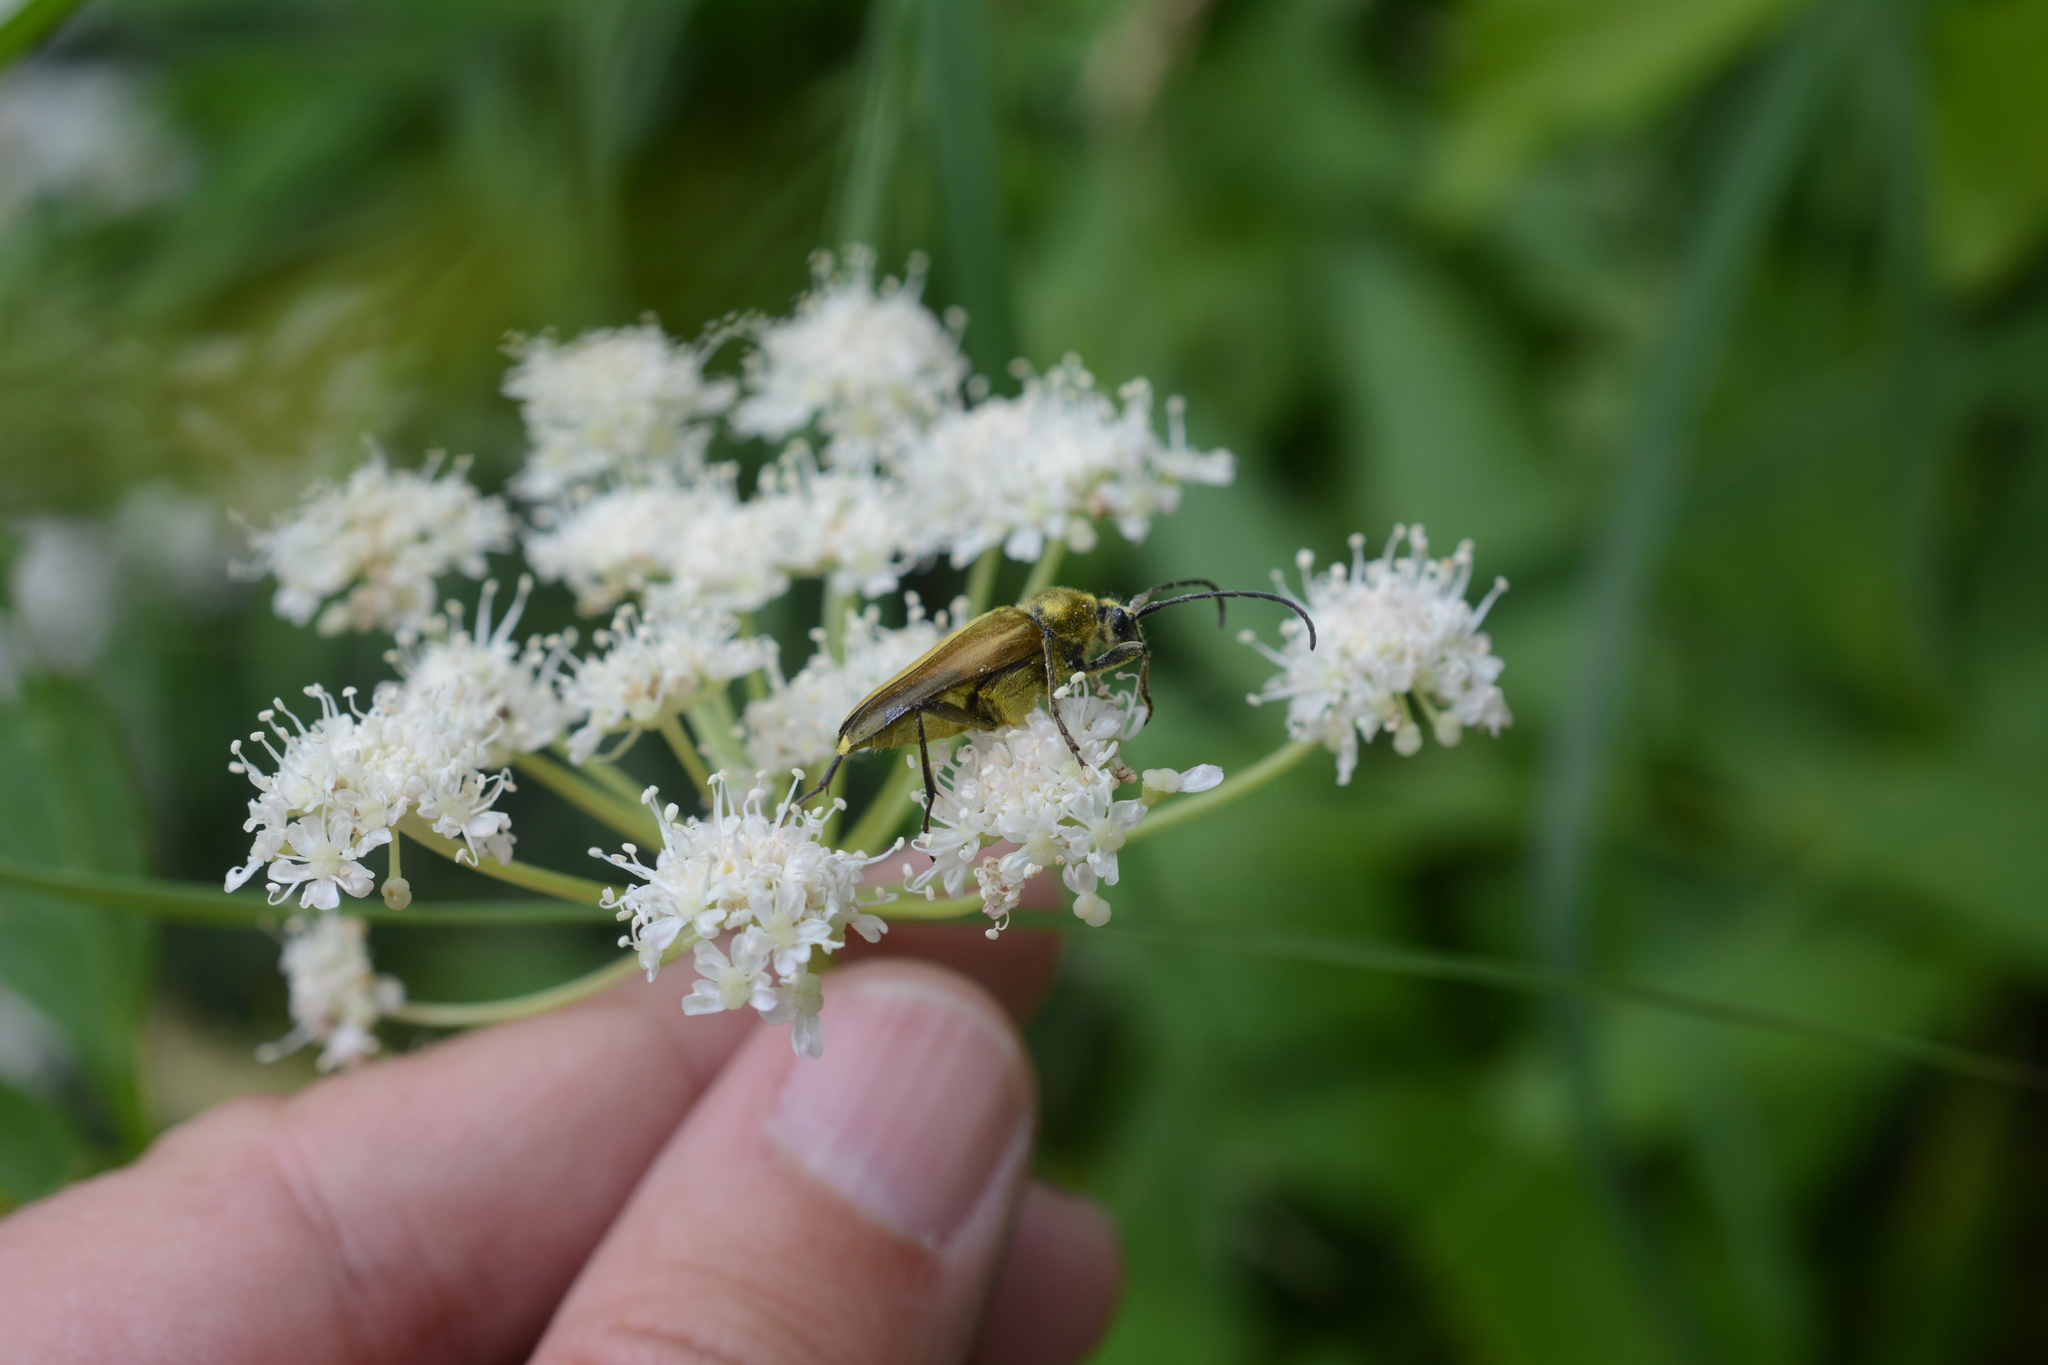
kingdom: Animalia
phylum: Arthropoda
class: Insecta
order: Coleoptera
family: Cerambycidae
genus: Cosmosalia
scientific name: Cosmosalia chrysocoma
